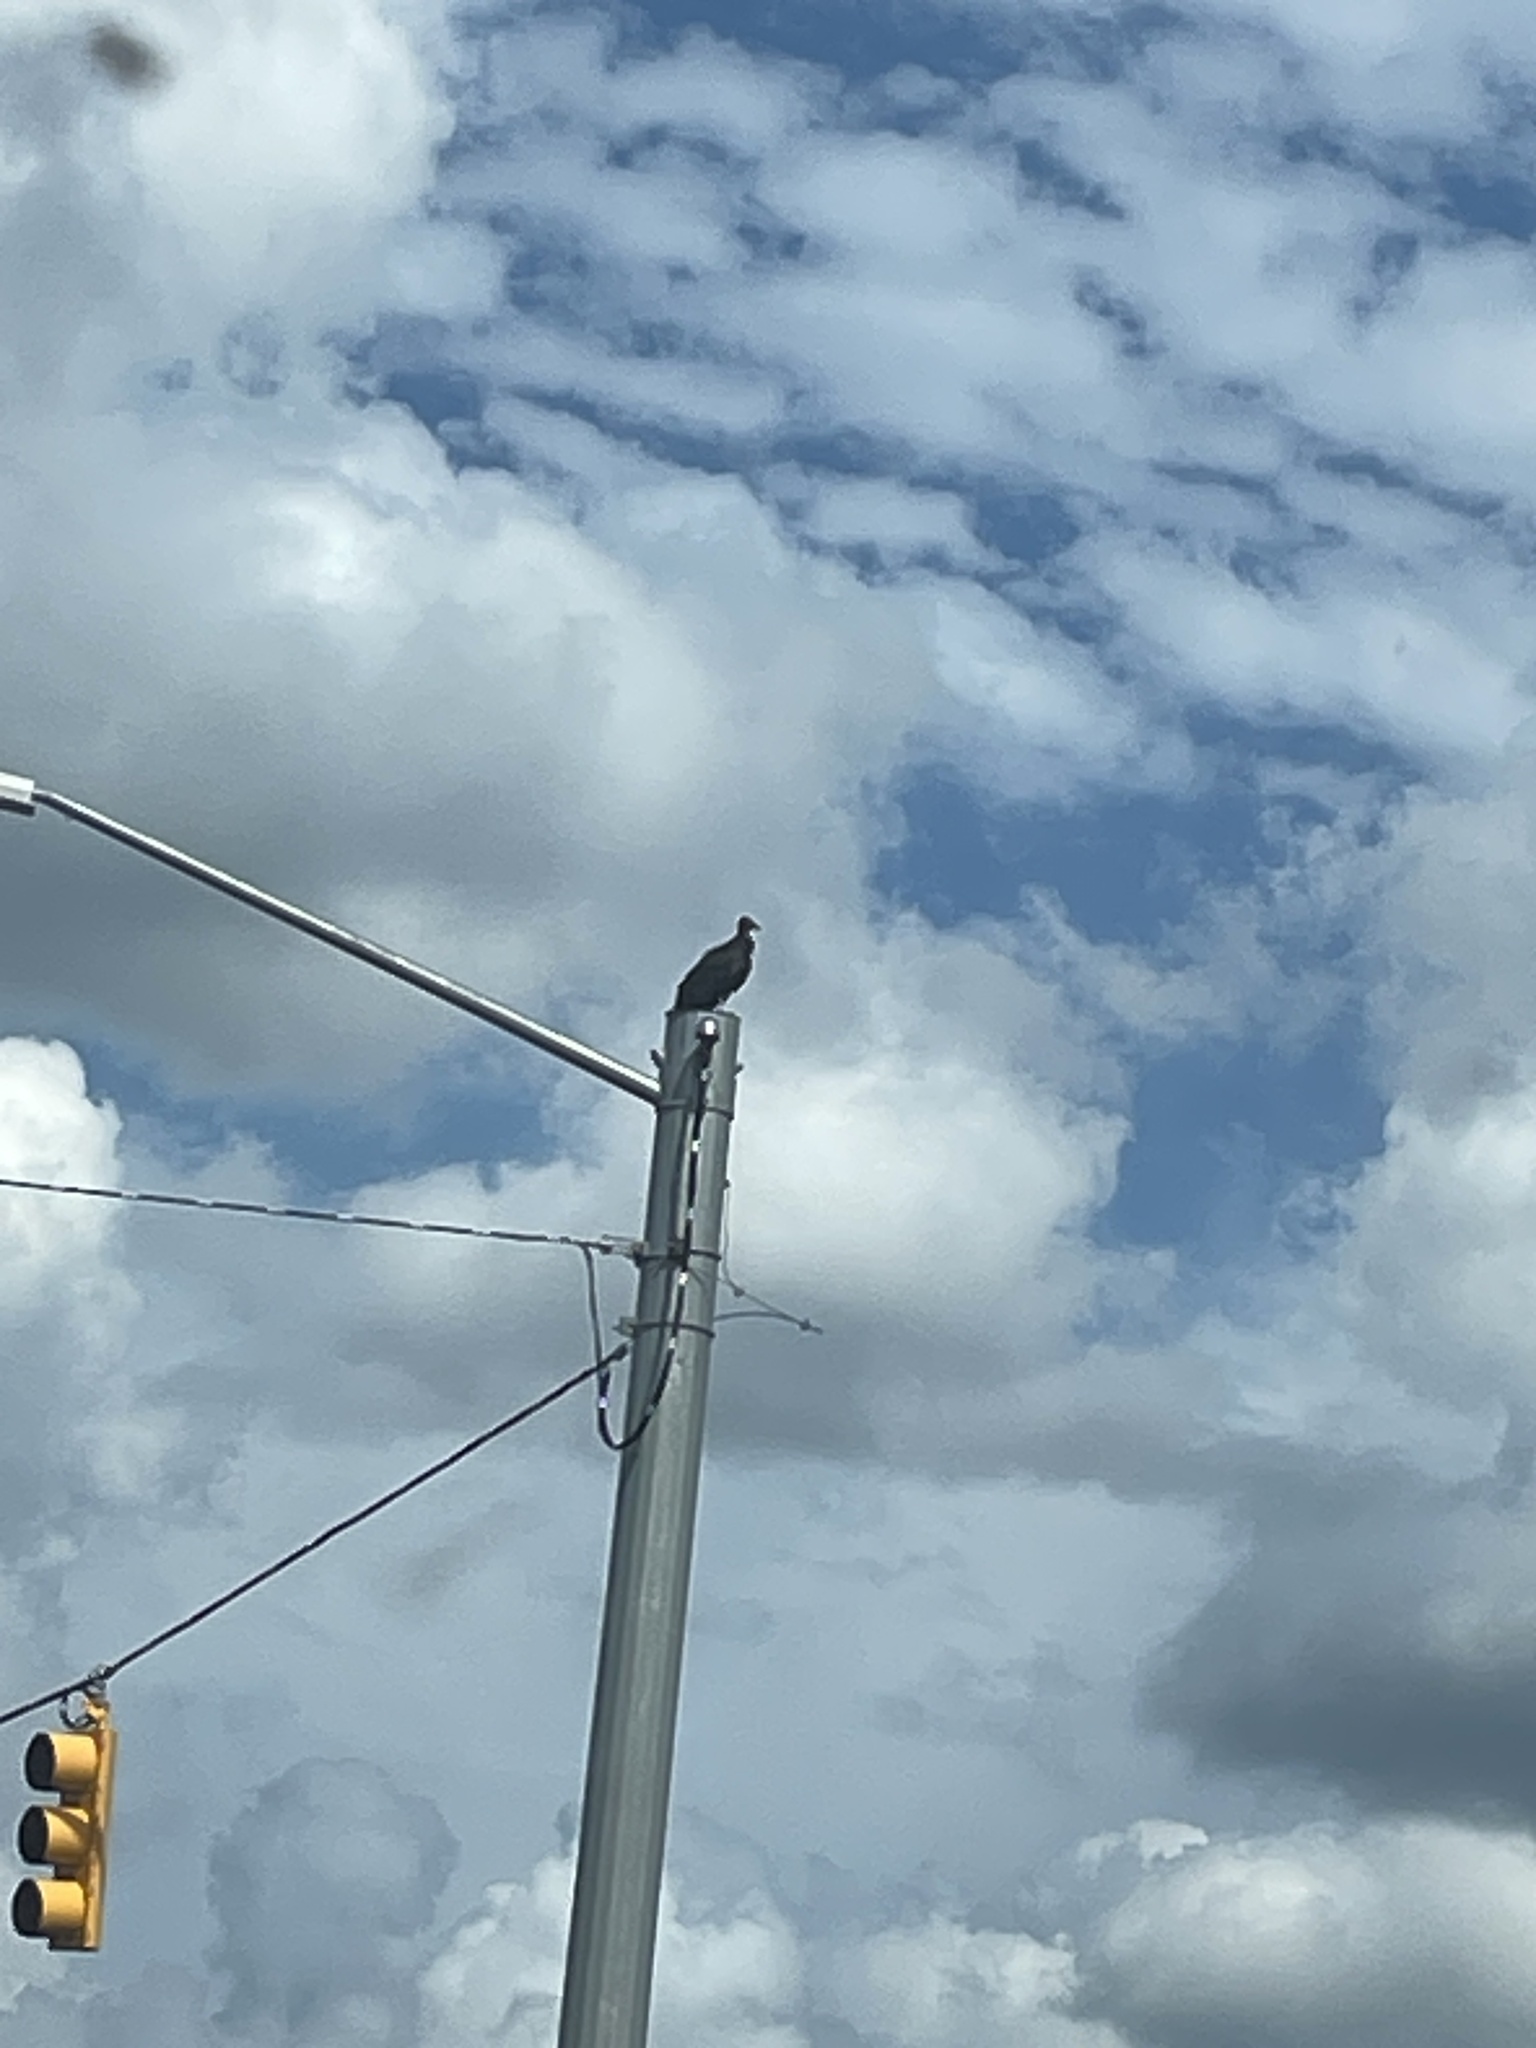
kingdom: Animalia
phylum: Chordata
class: Aves
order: Accipitriformes
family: Cathartidae
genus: Coragyps
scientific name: Coragyps atratus
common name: Black vulture
